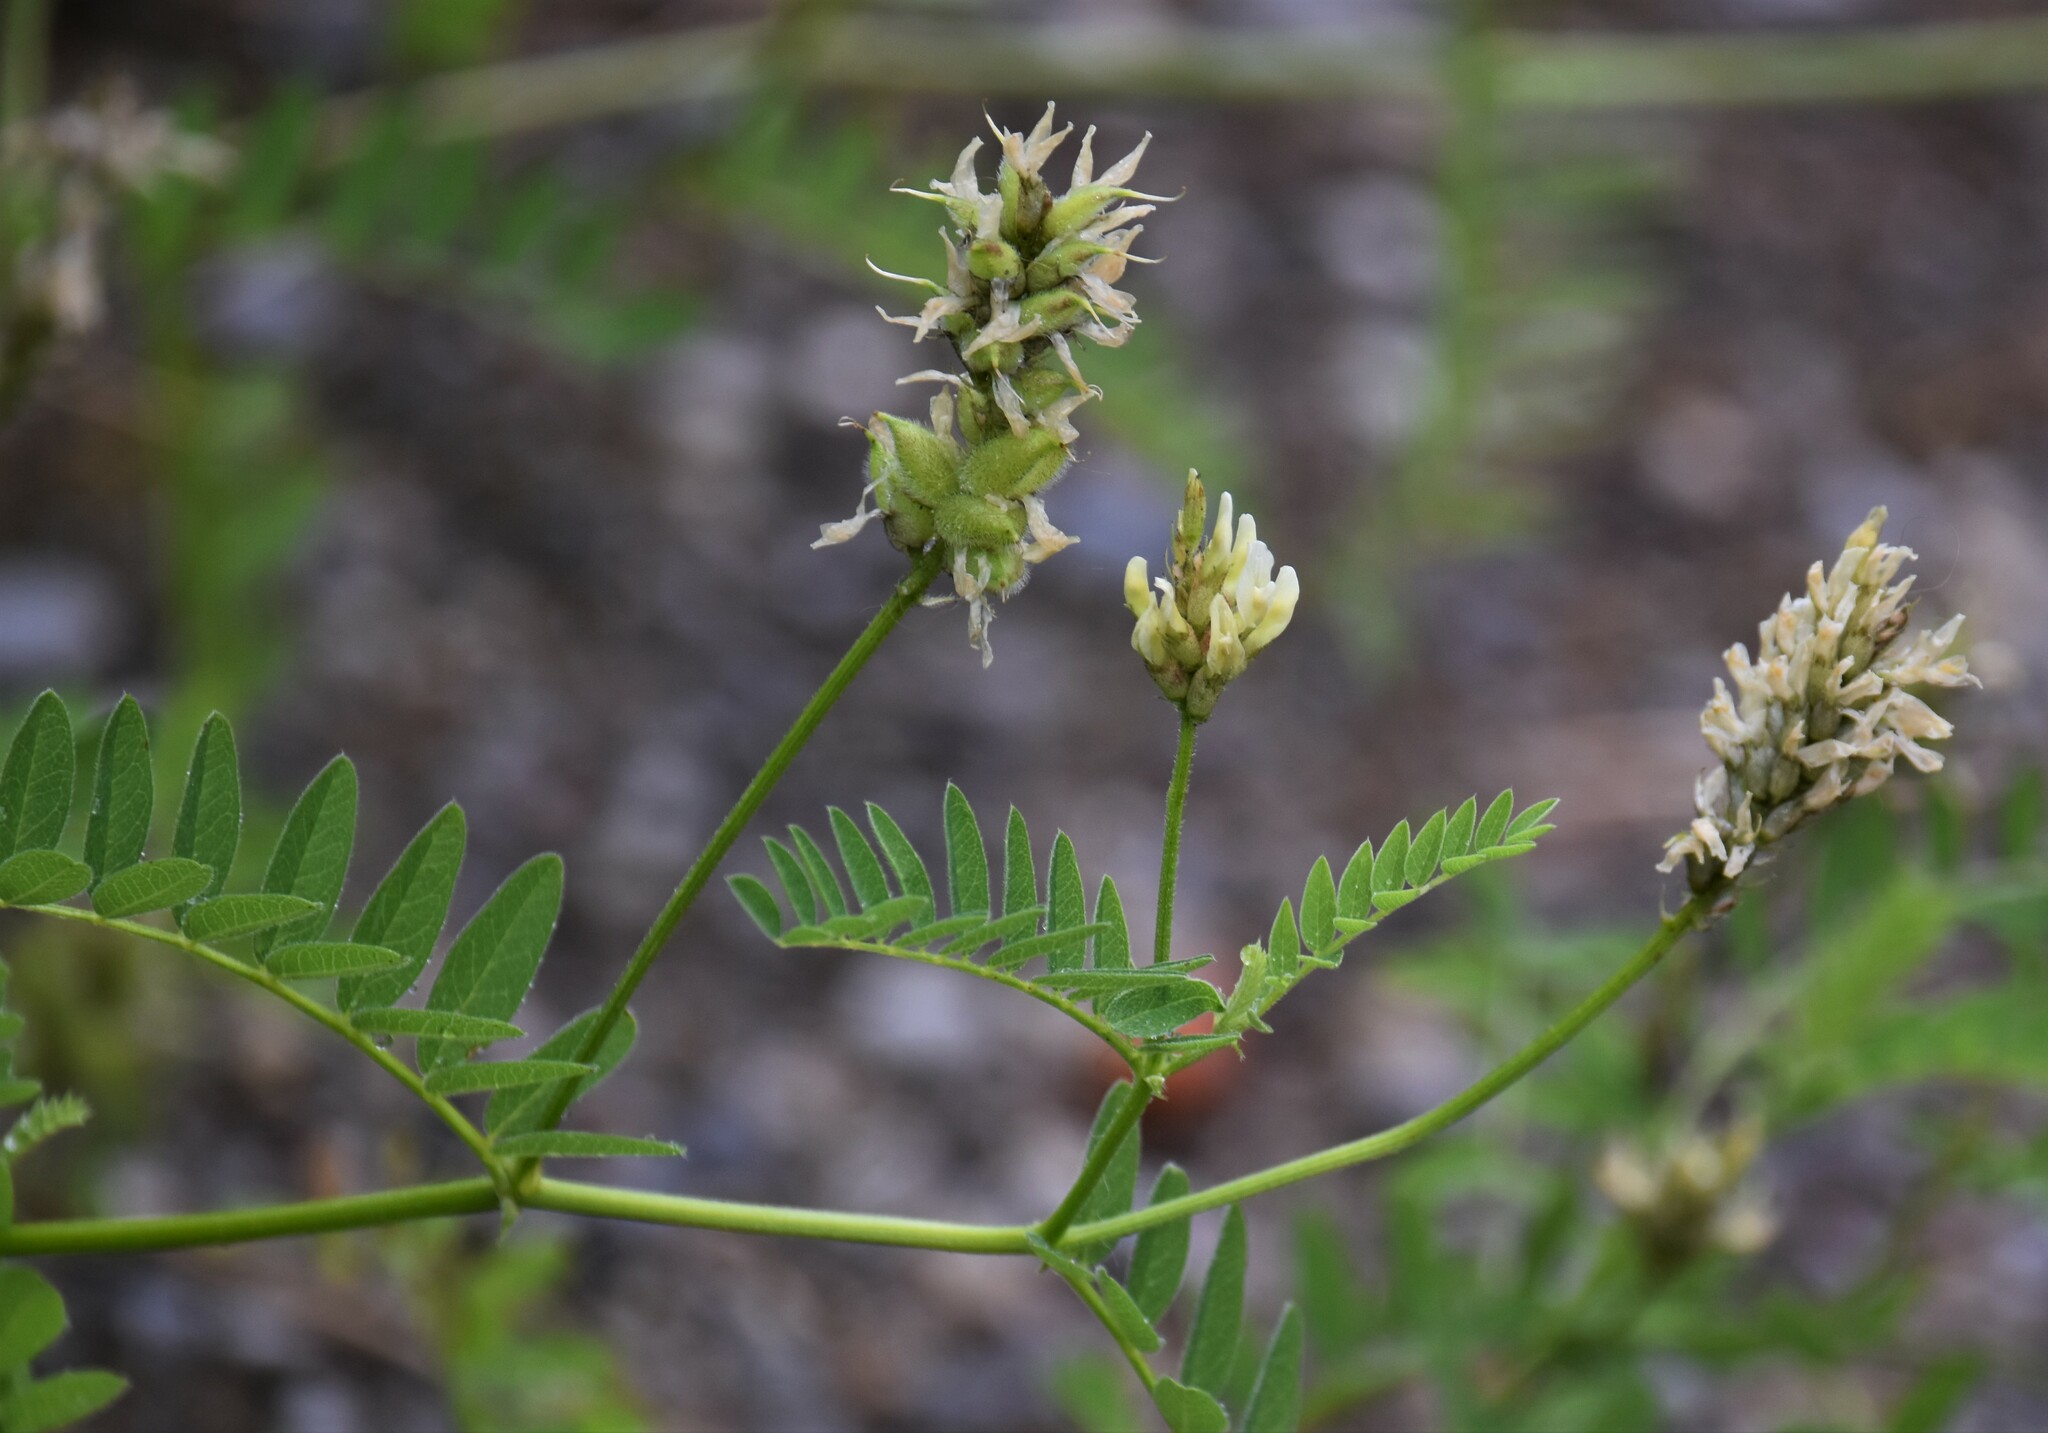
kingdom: Plantae
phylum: Tracheophyta
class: Magnoliopsida
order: Fabales
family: Fabaceae
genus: Astragalus
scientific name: Astragalus cicer
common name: Chick-pea milk-vetch
